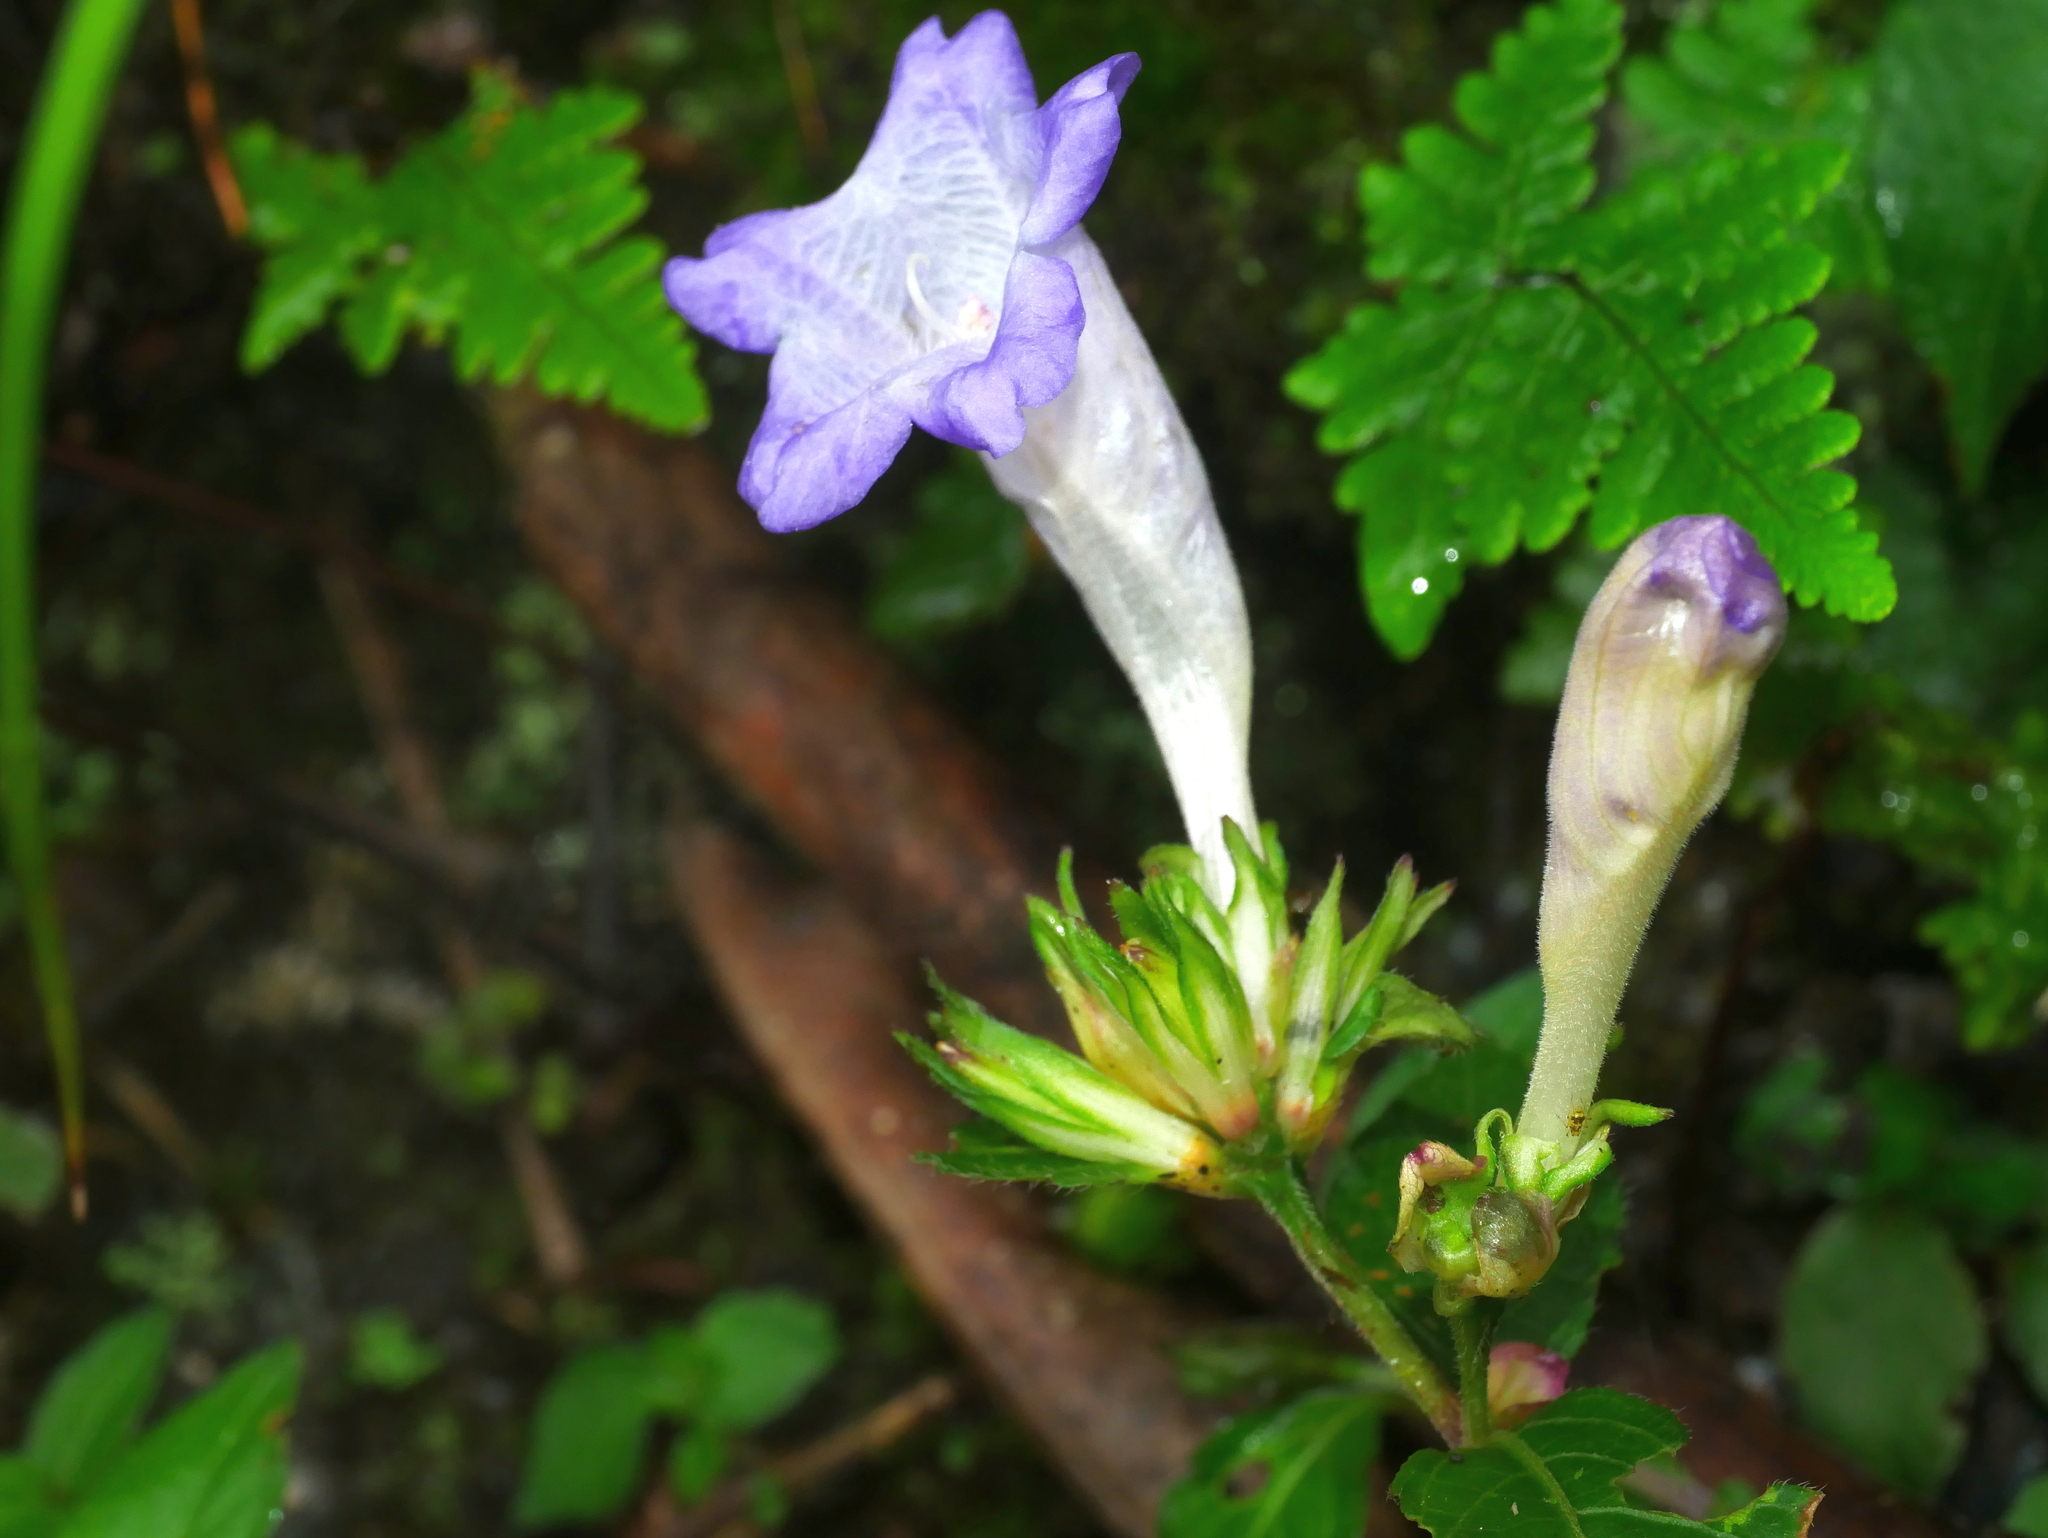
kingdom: Plantae
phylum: Tracheophyta
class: Magnoliopsida
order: Lamiales
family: Acanthaceae
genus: Strobilanthes
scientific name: Strobilanthes pentastemonoides
